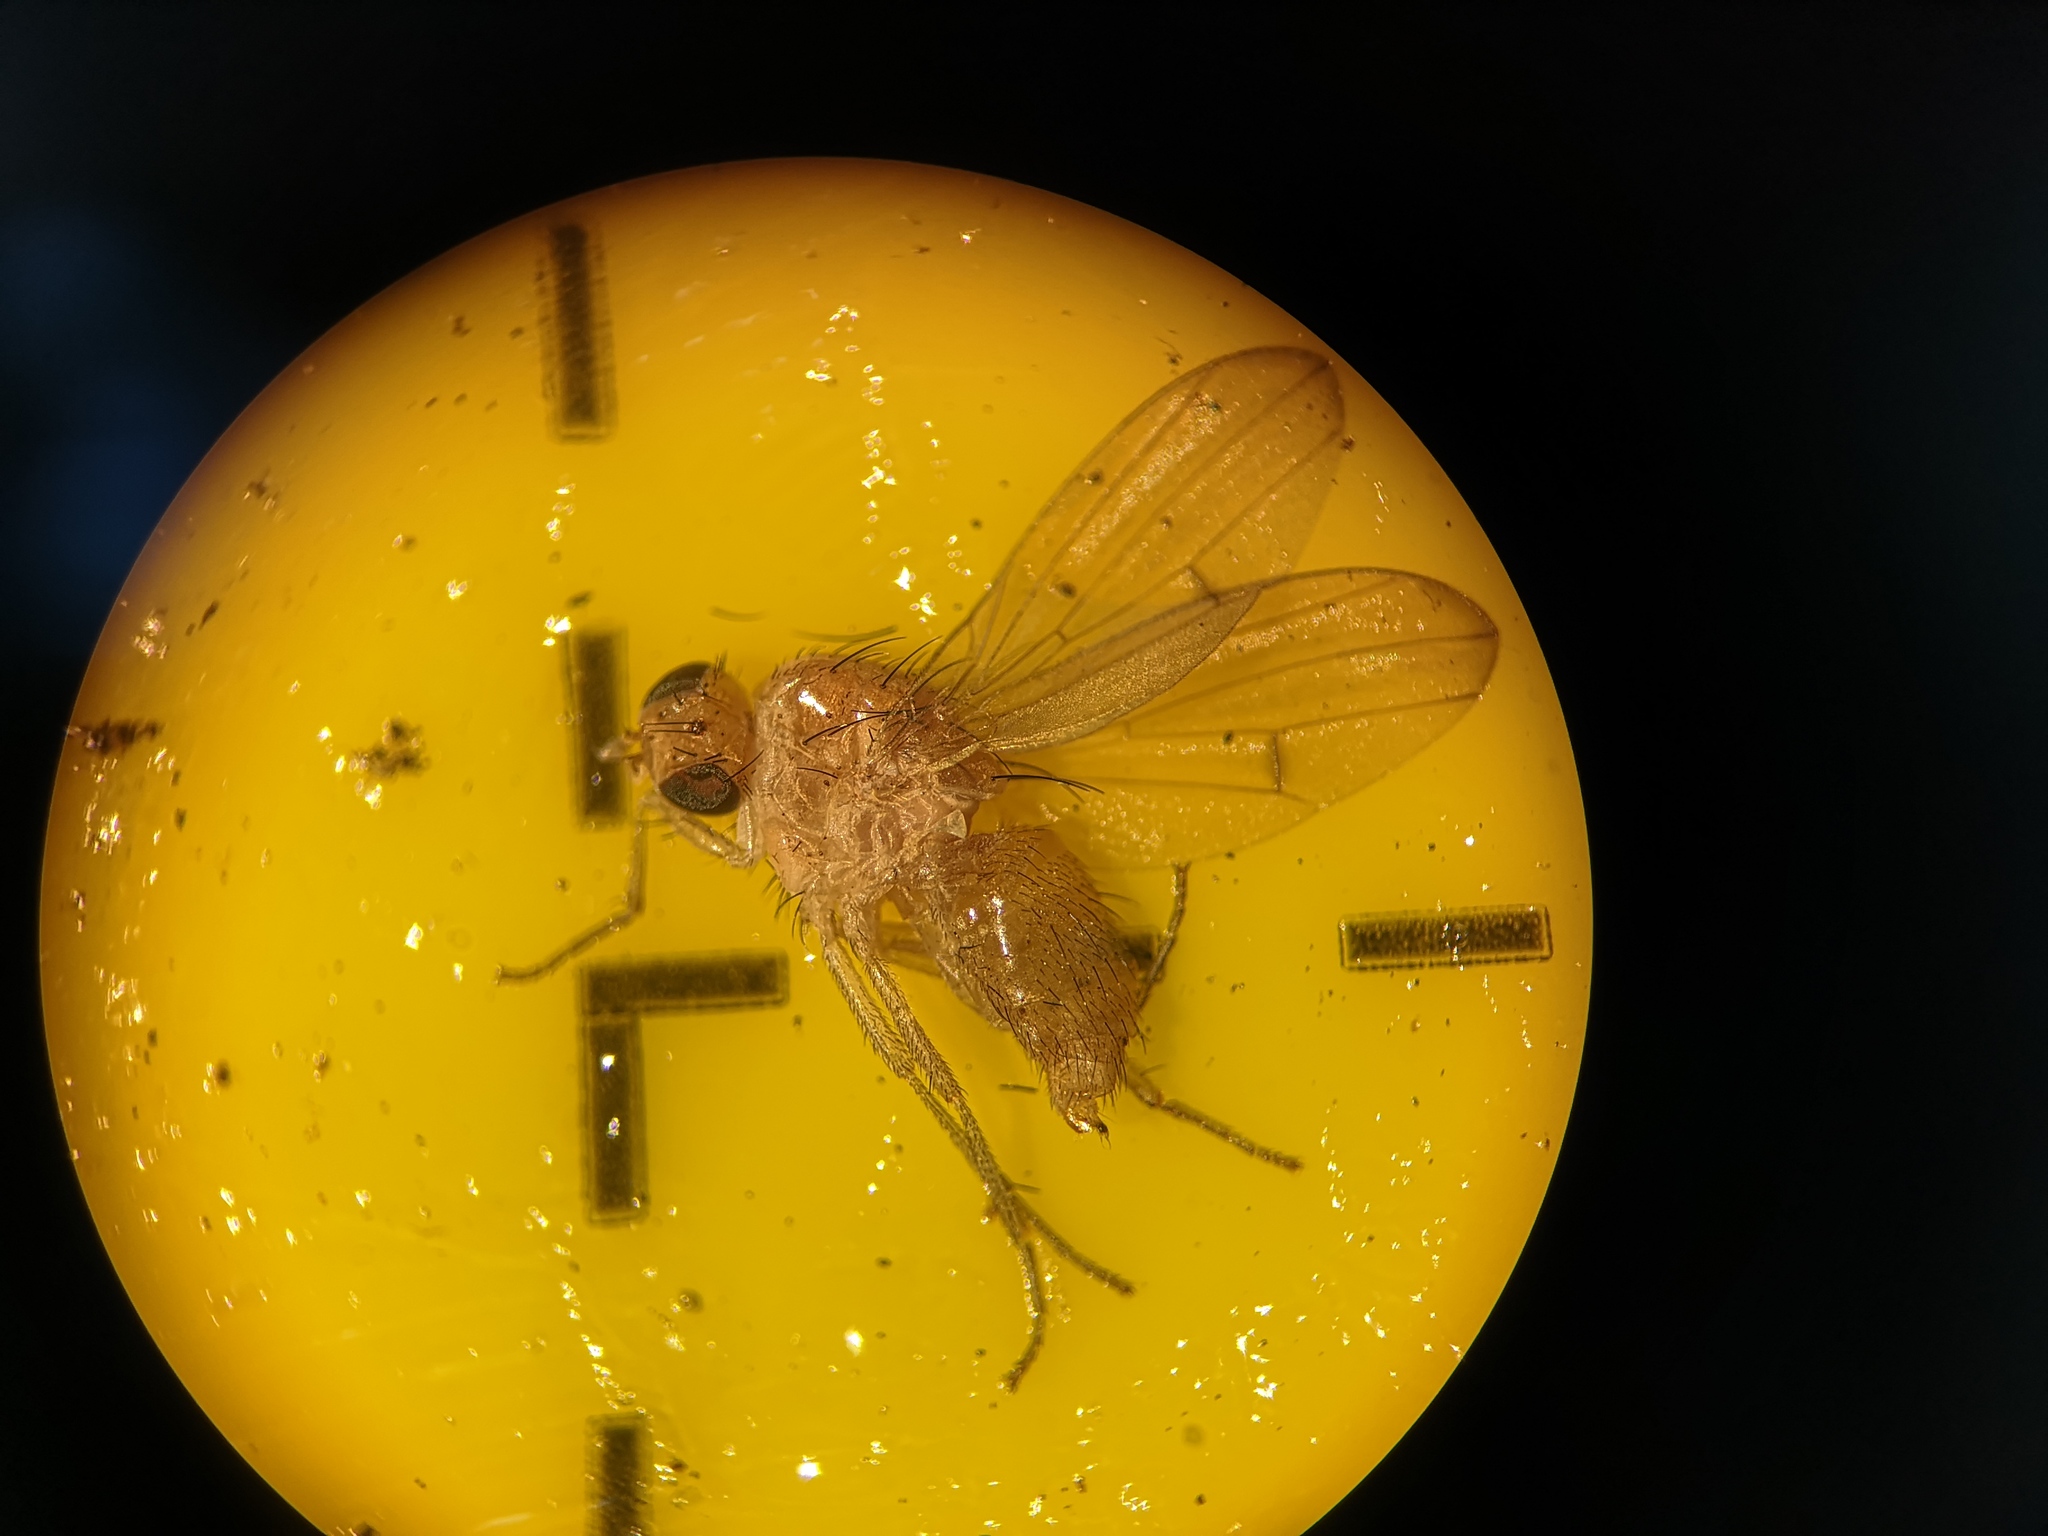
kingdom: Animalia
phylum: Arthropoda
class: Insecta
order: Diptera
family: Lauxaniidae
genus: Tricholauxania
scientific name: Tricholauxania praeusta
